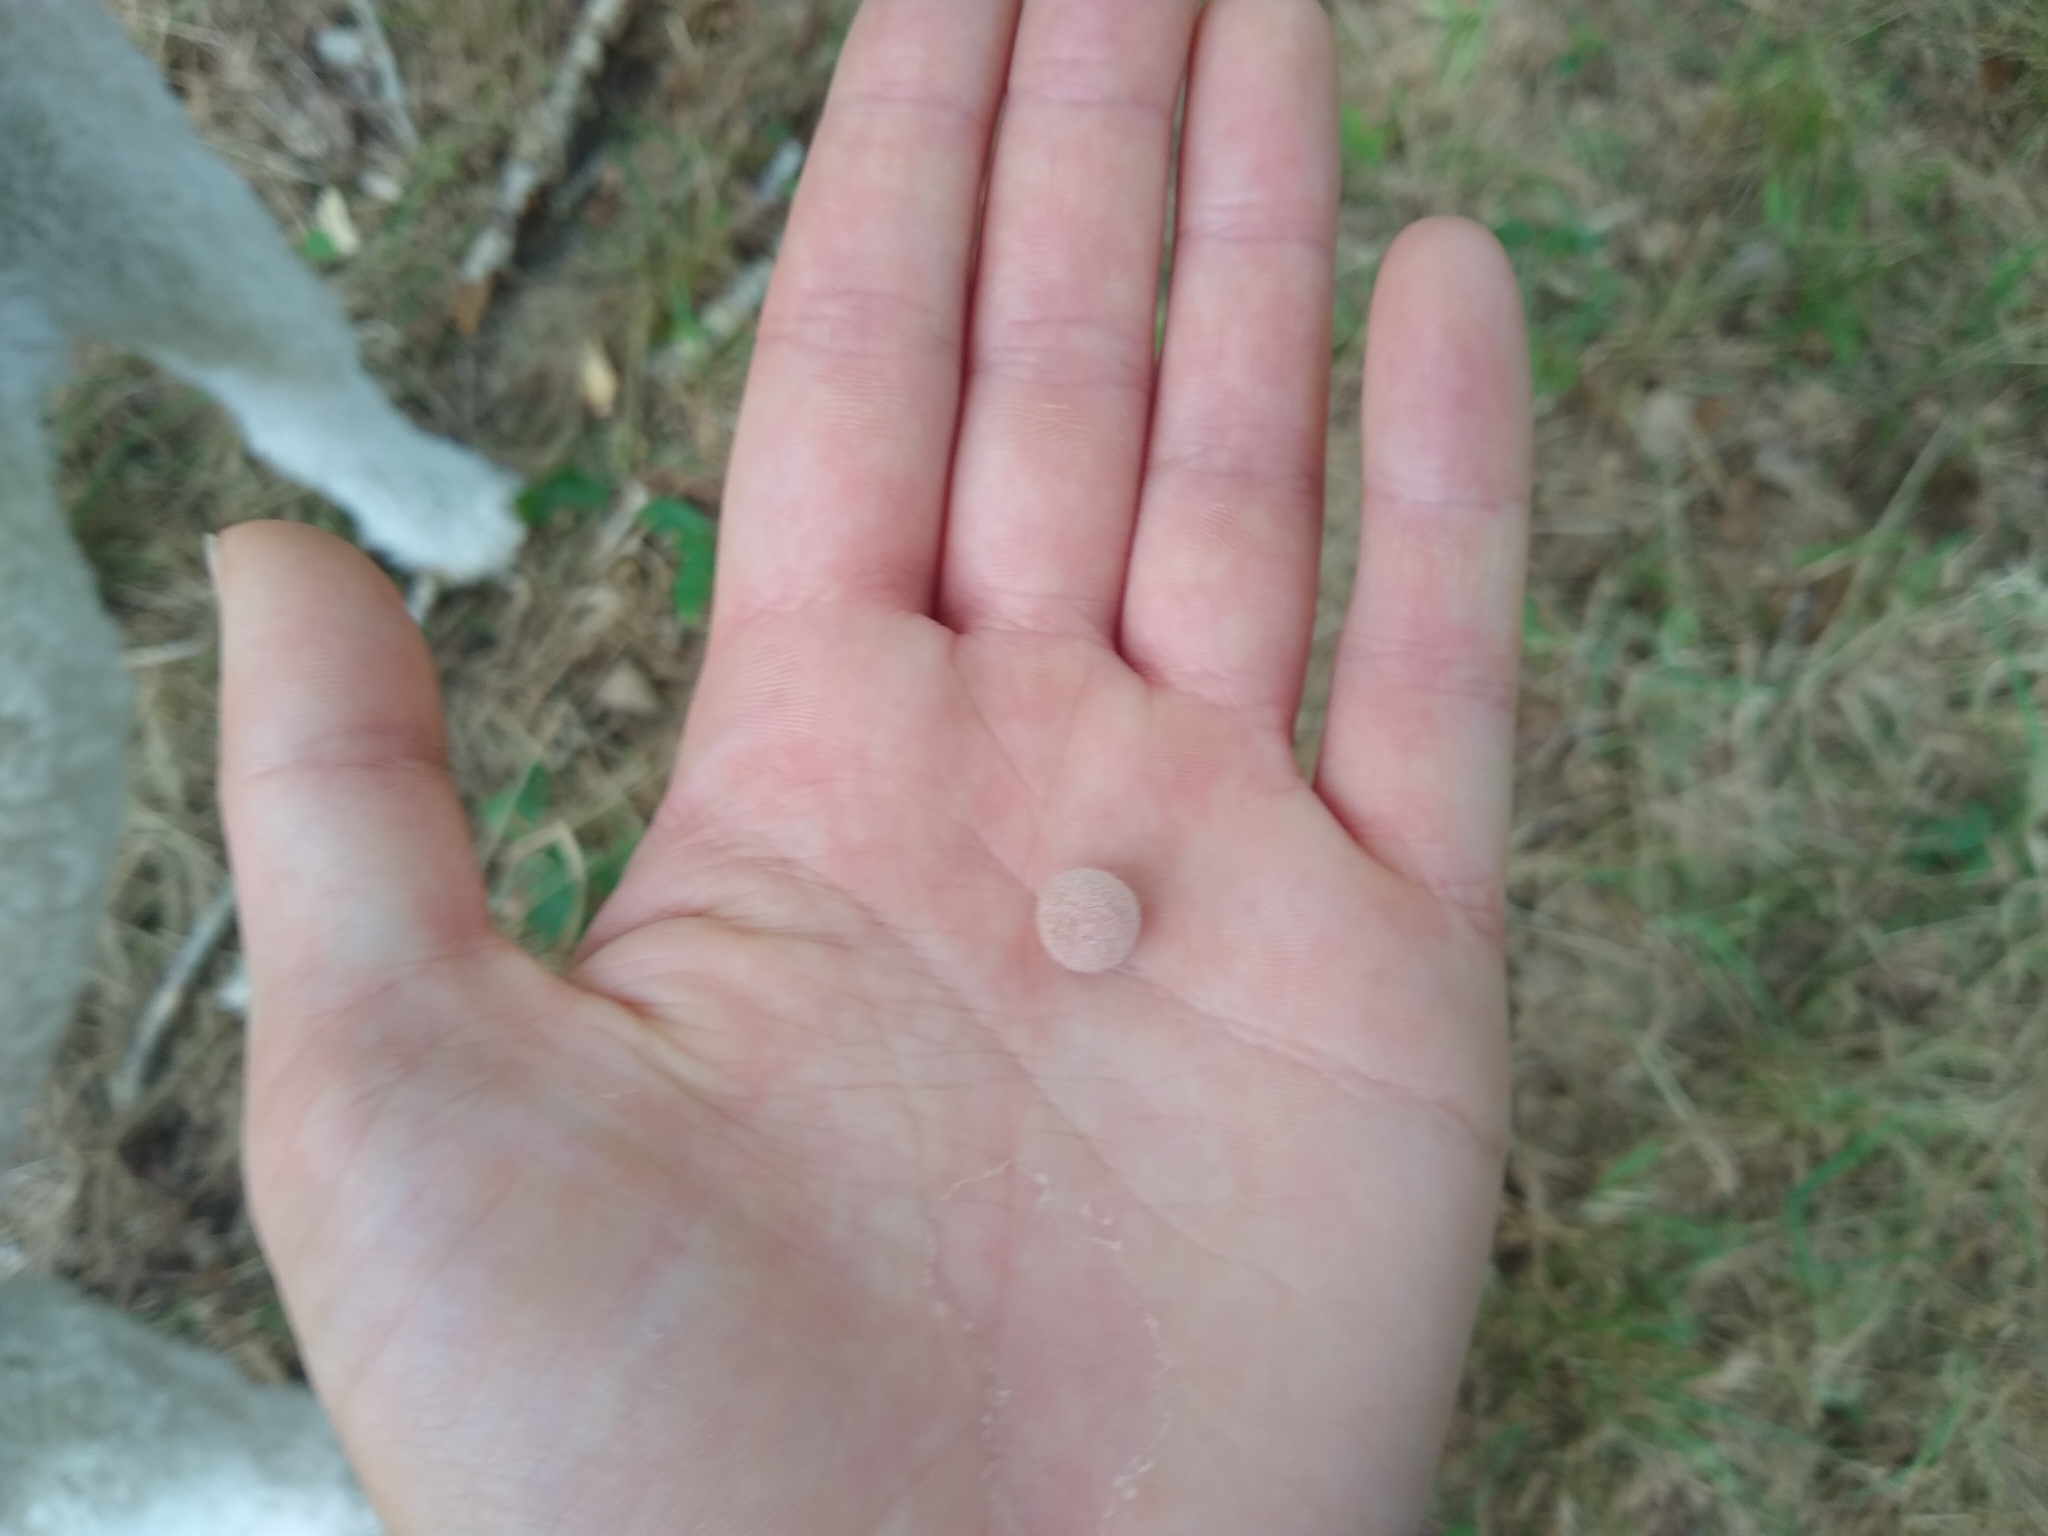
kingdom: Animalia
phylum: Arthropoda
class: Insecta
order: Hymenoptera
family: Cynipidae
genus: Philonix
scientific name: Philonix fulvicollis
